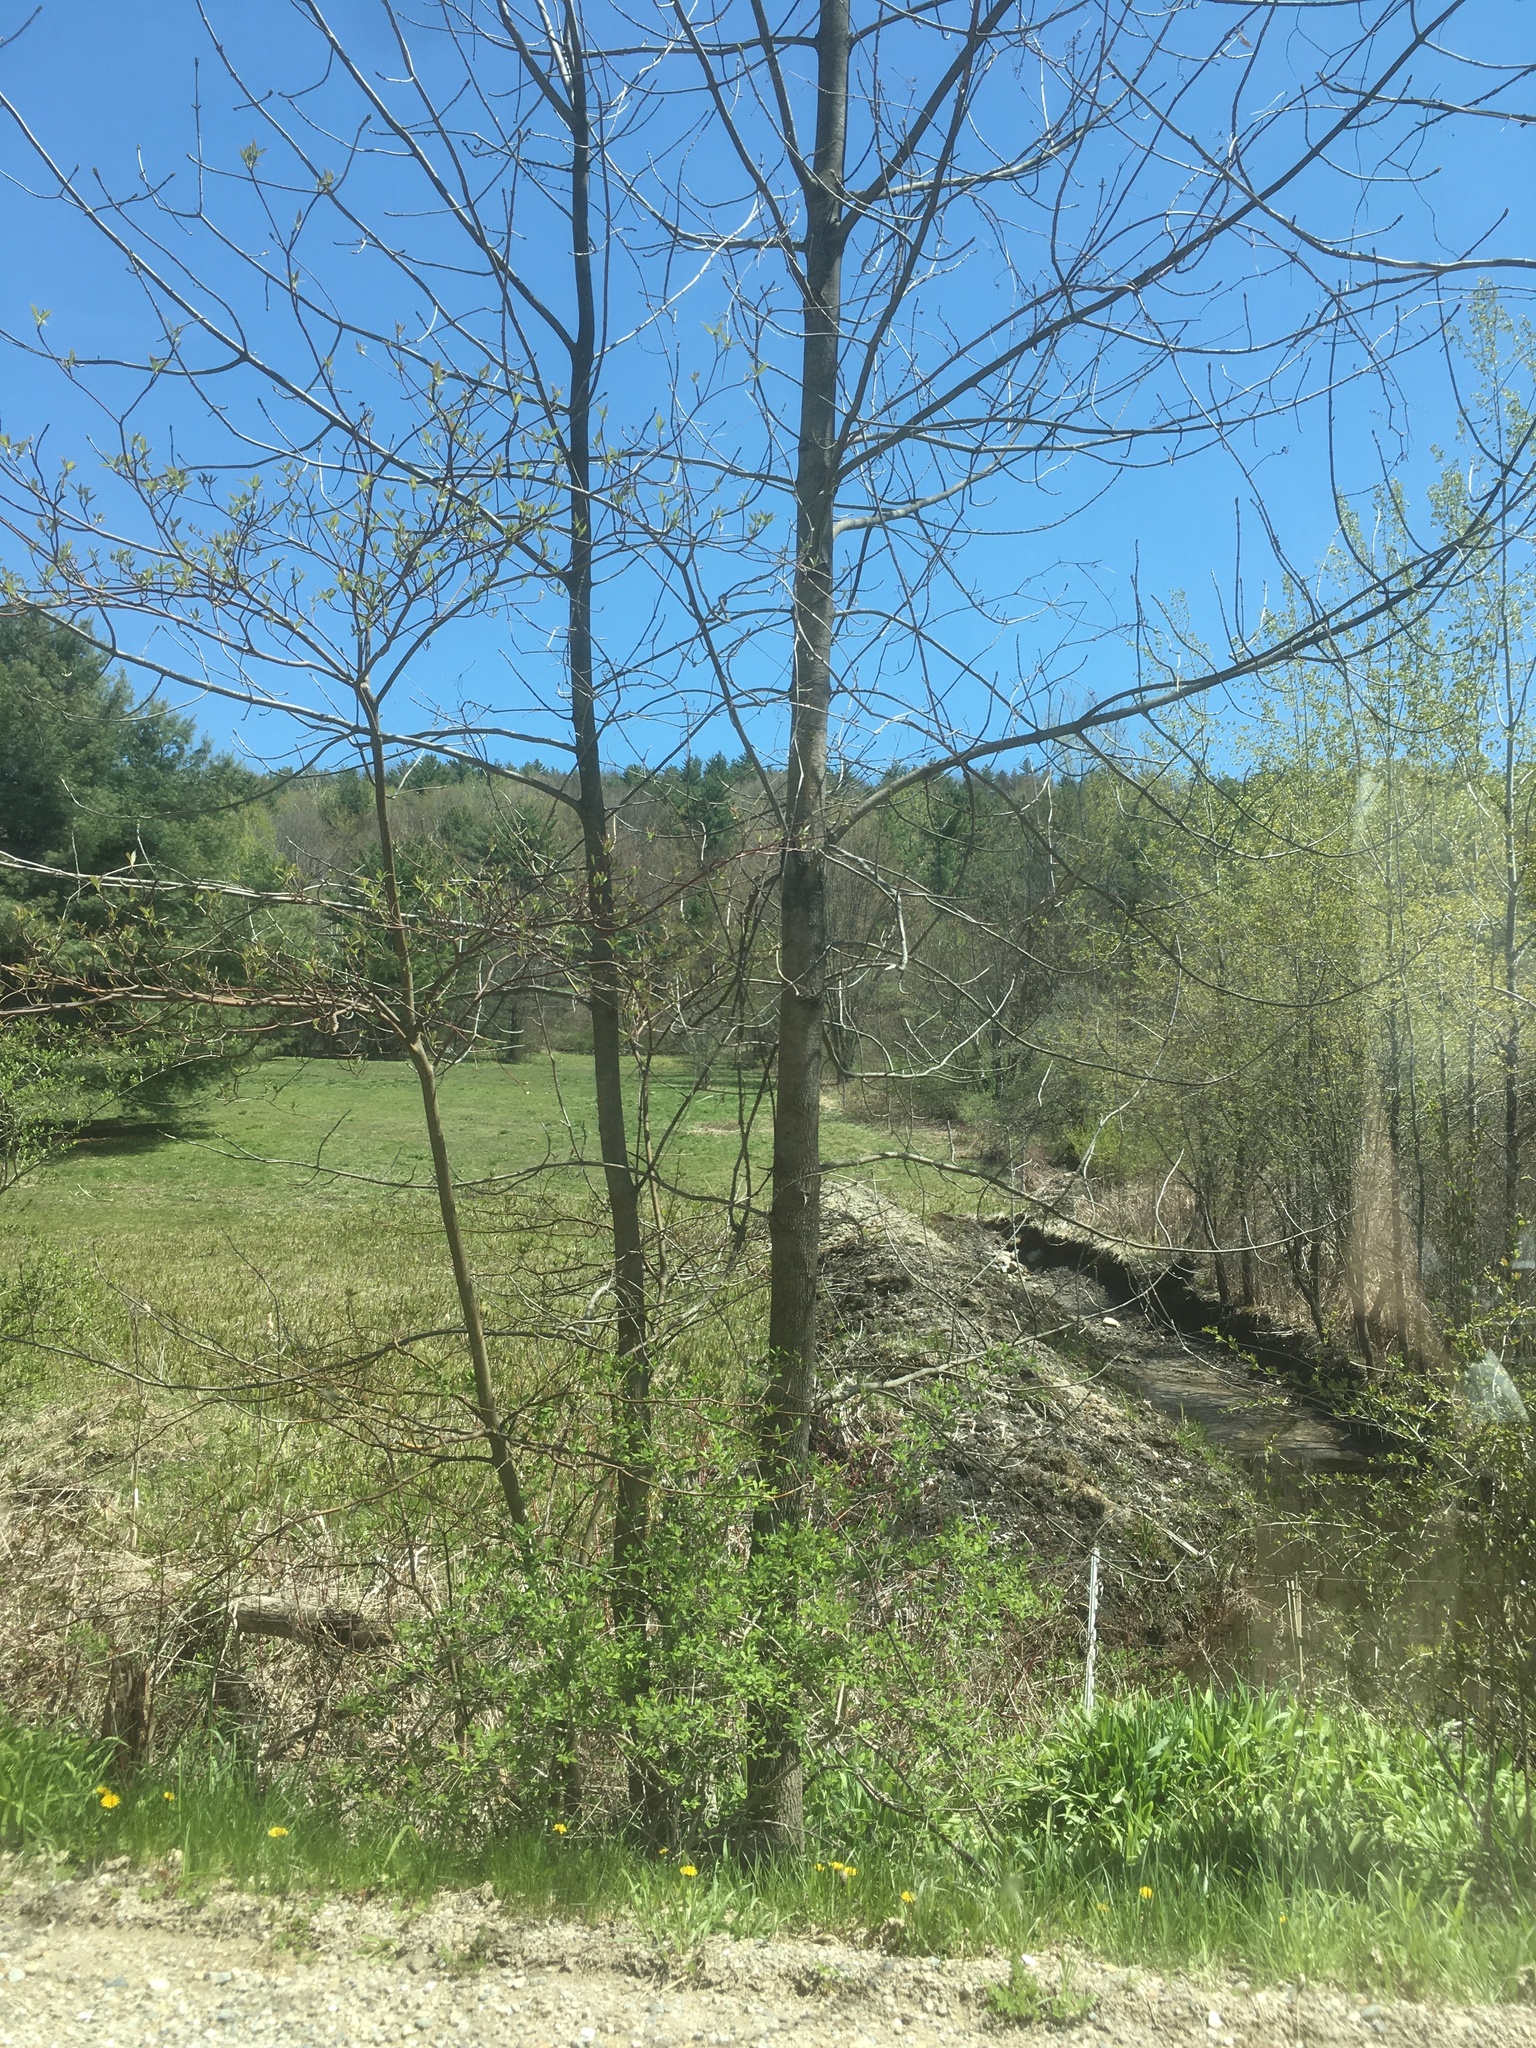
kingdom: Plantae
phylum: Tracheophyta
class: Magnoliopsida
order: Cornales
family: Cornaceae
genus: Cornus
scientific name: Cornus alternifolia
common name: Pagoda dogwood
